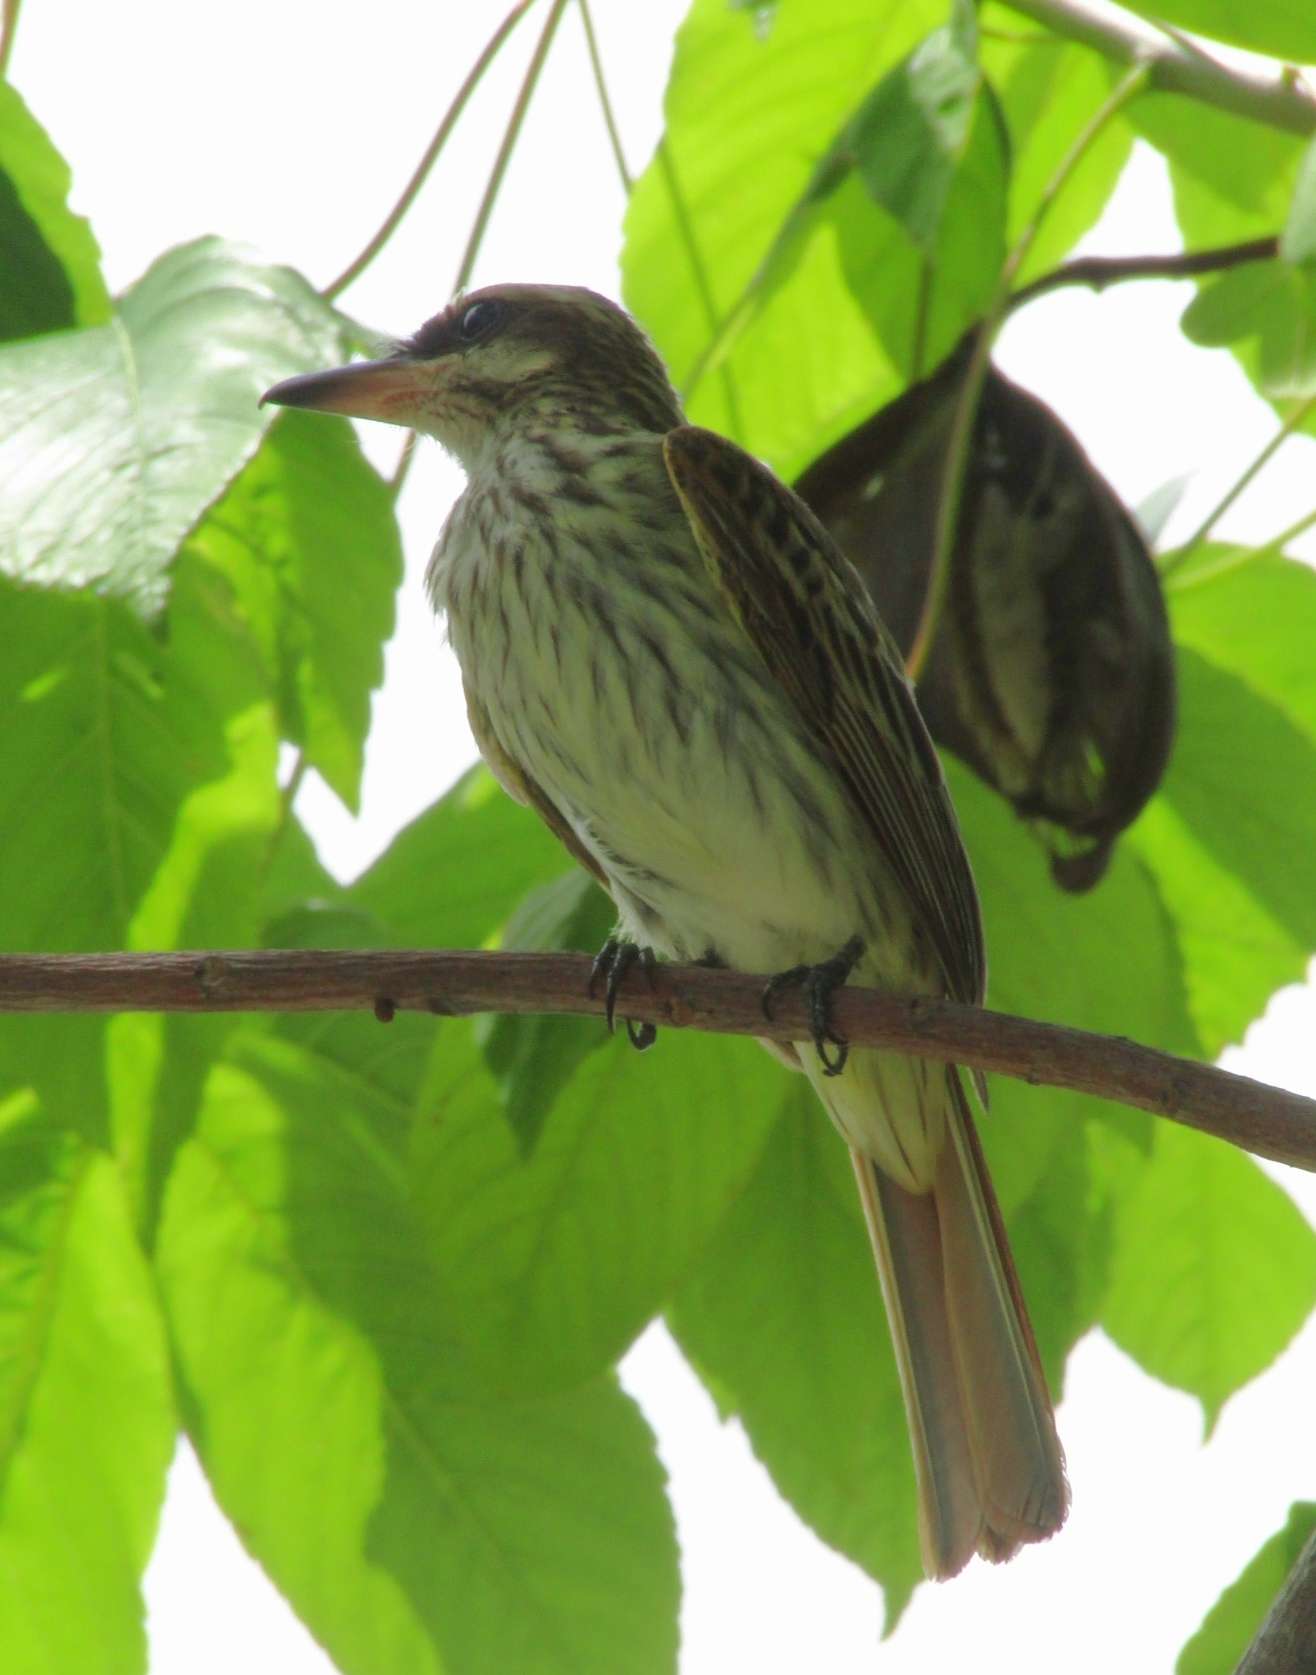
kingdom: Animalia
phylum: Chordata
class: Aves
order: Passeriformes
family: Tyrannidae
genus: Myiodynastes
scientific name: Myiodynastes maculatus
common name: Streaked flycatcher
